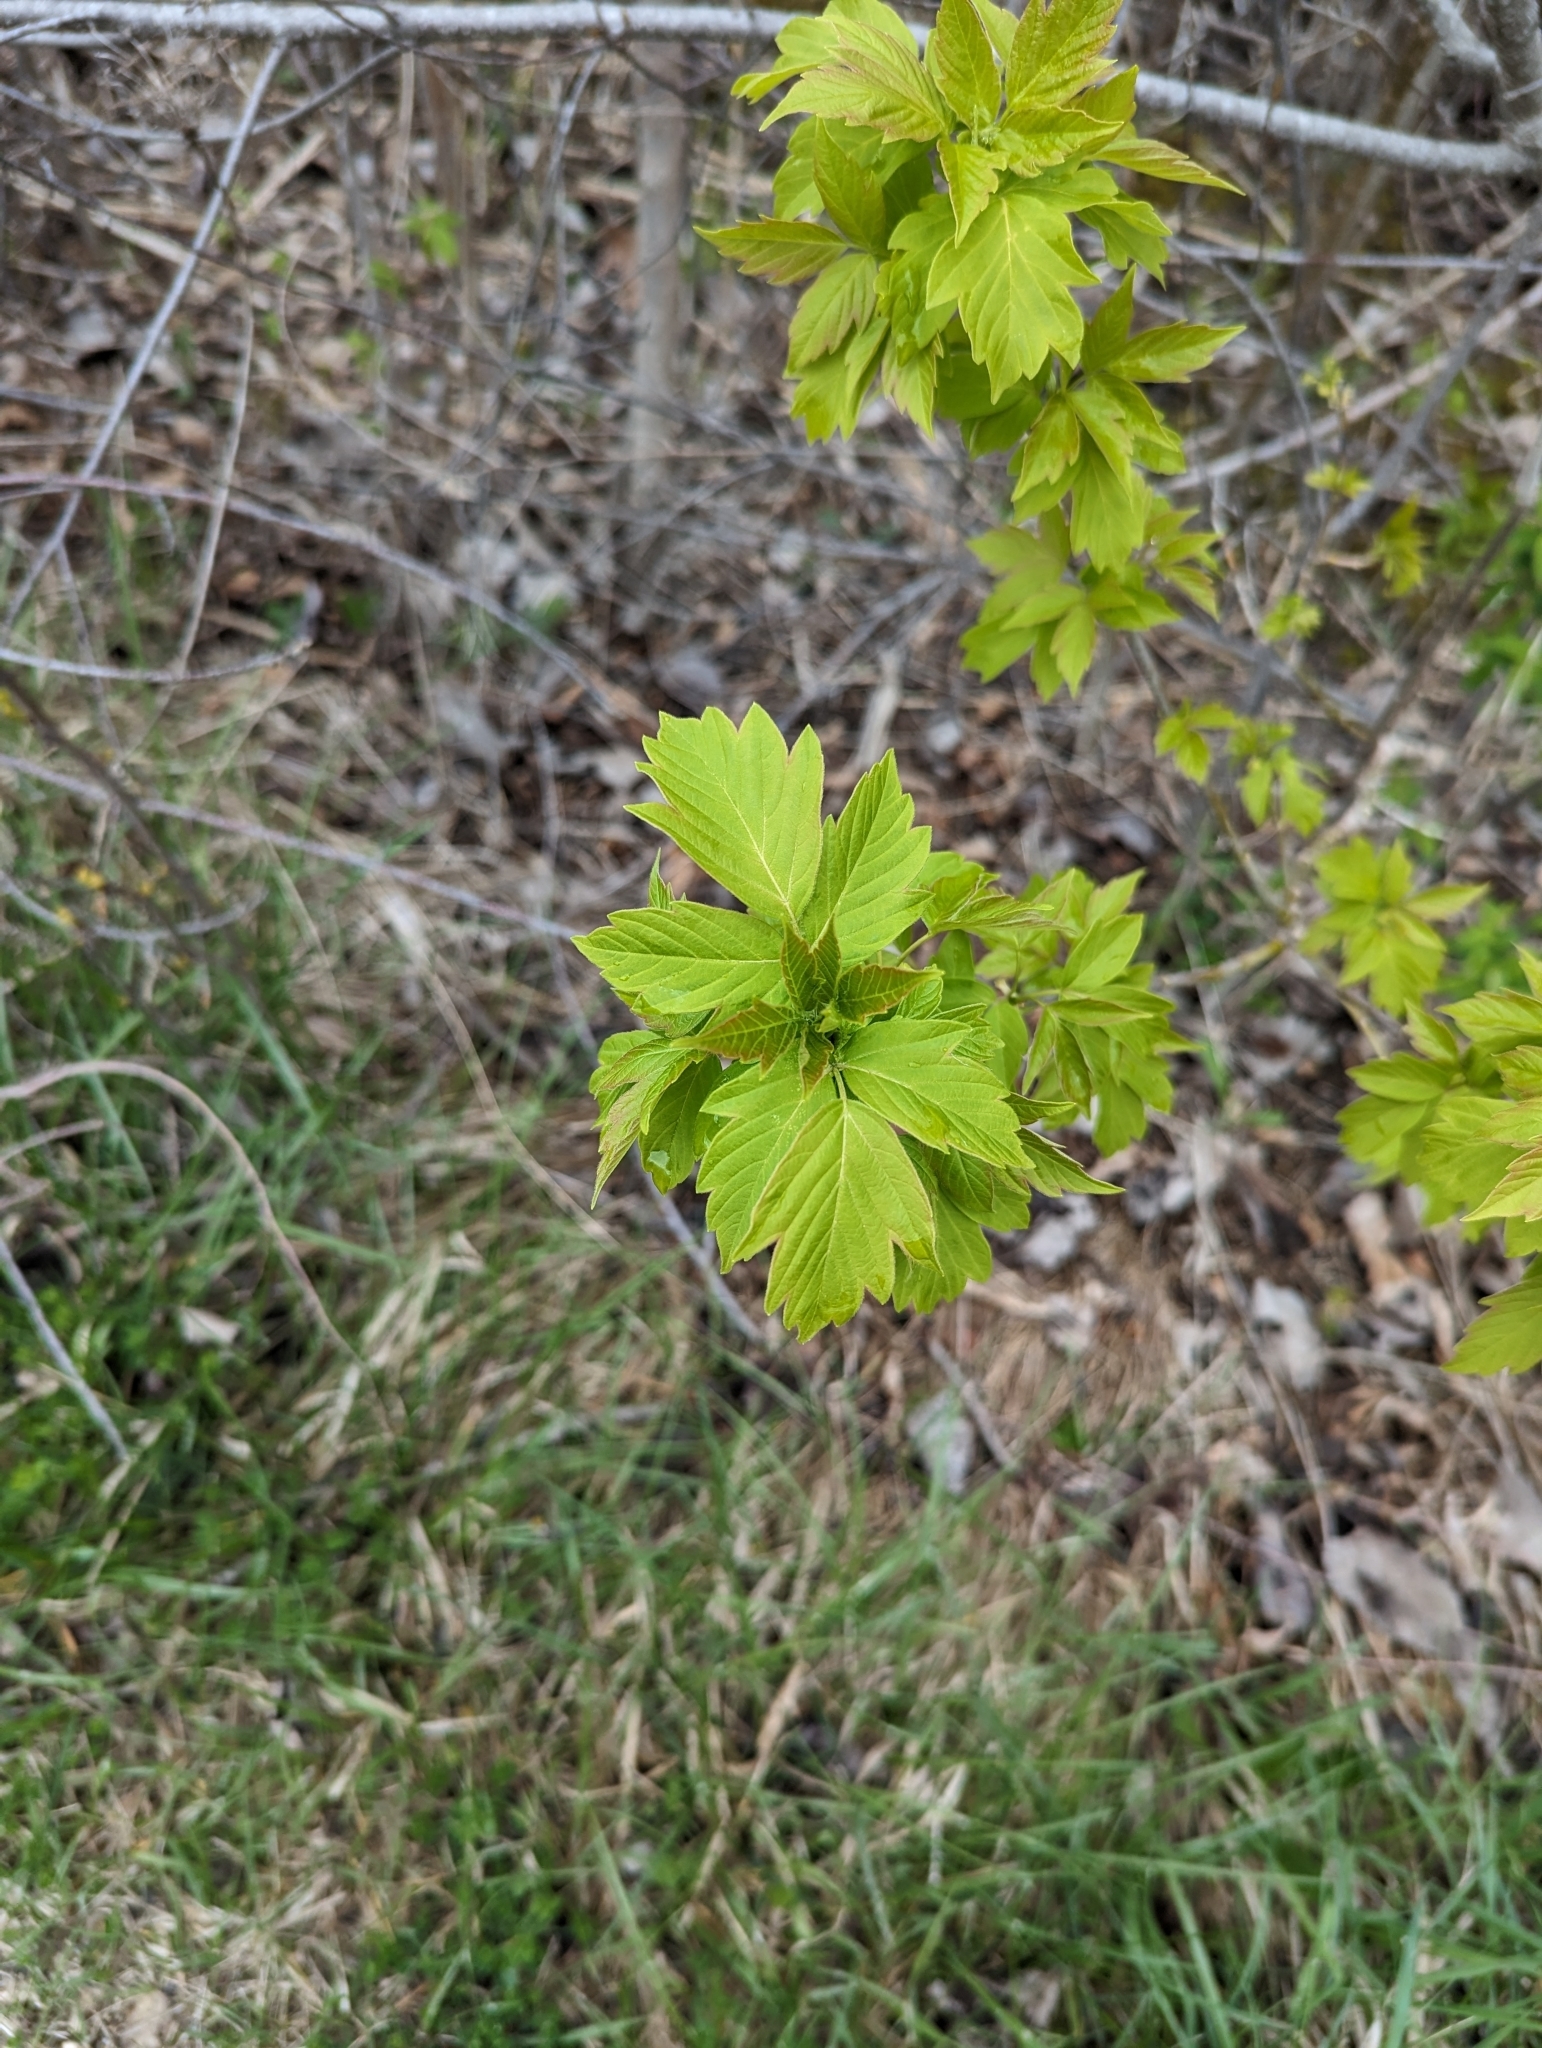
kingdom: Plantae
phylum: Tracheophyta
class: Magnoliopsida
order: Sapindales
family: Sapindaceae
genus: Acer
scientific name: Acer negundo
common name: Ashleaf maple
